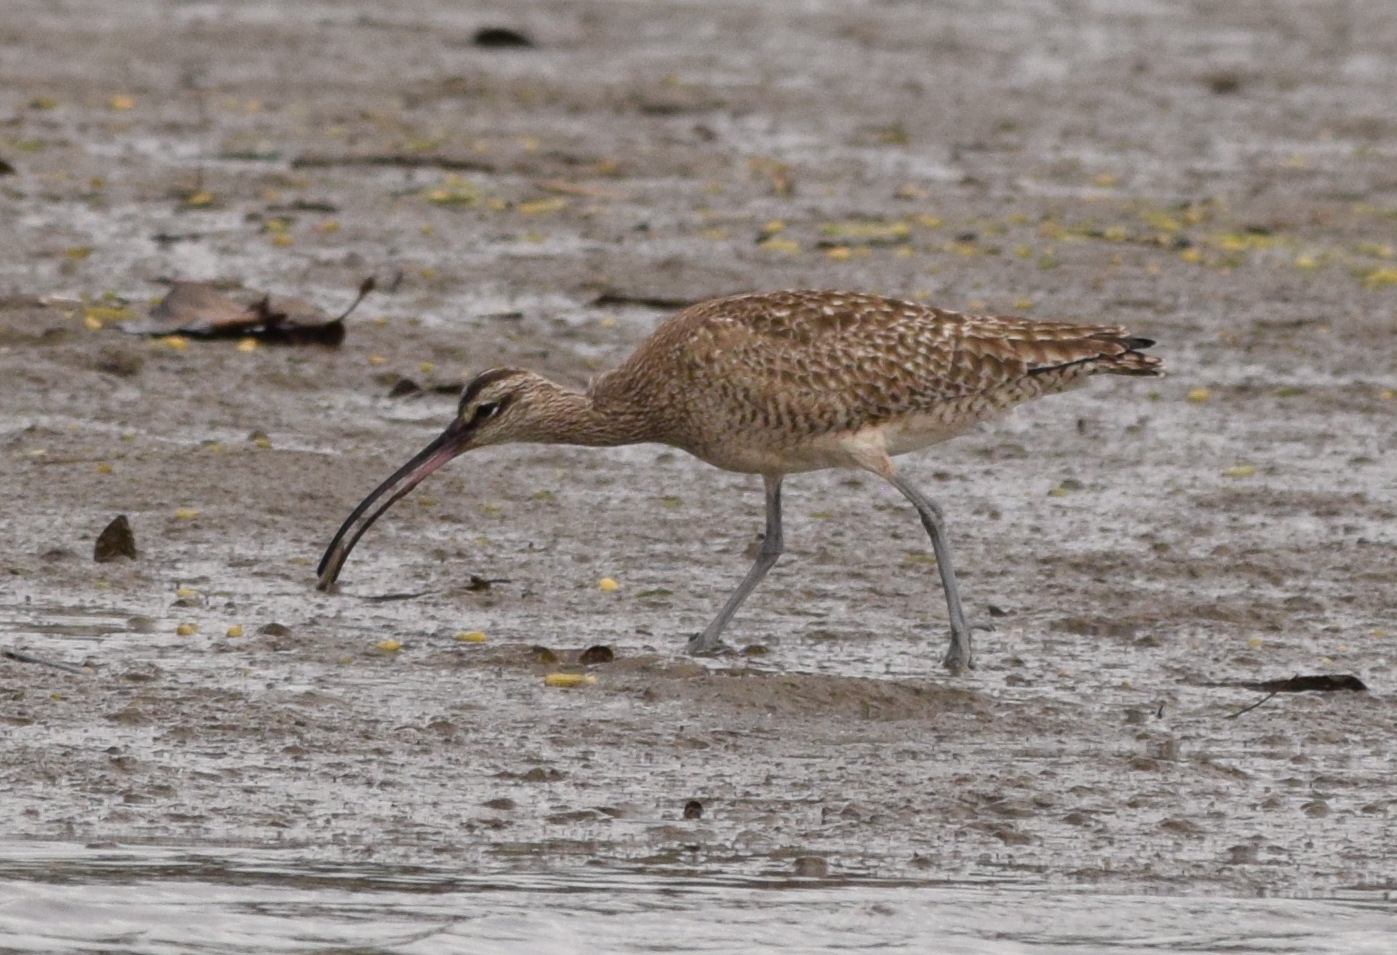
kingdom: Animalia
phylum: Chordata
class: Aves
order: Charadriiformes
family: Scolopacidae
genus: Numenius
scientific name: Numenius phaeopus
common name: Whimbrel
